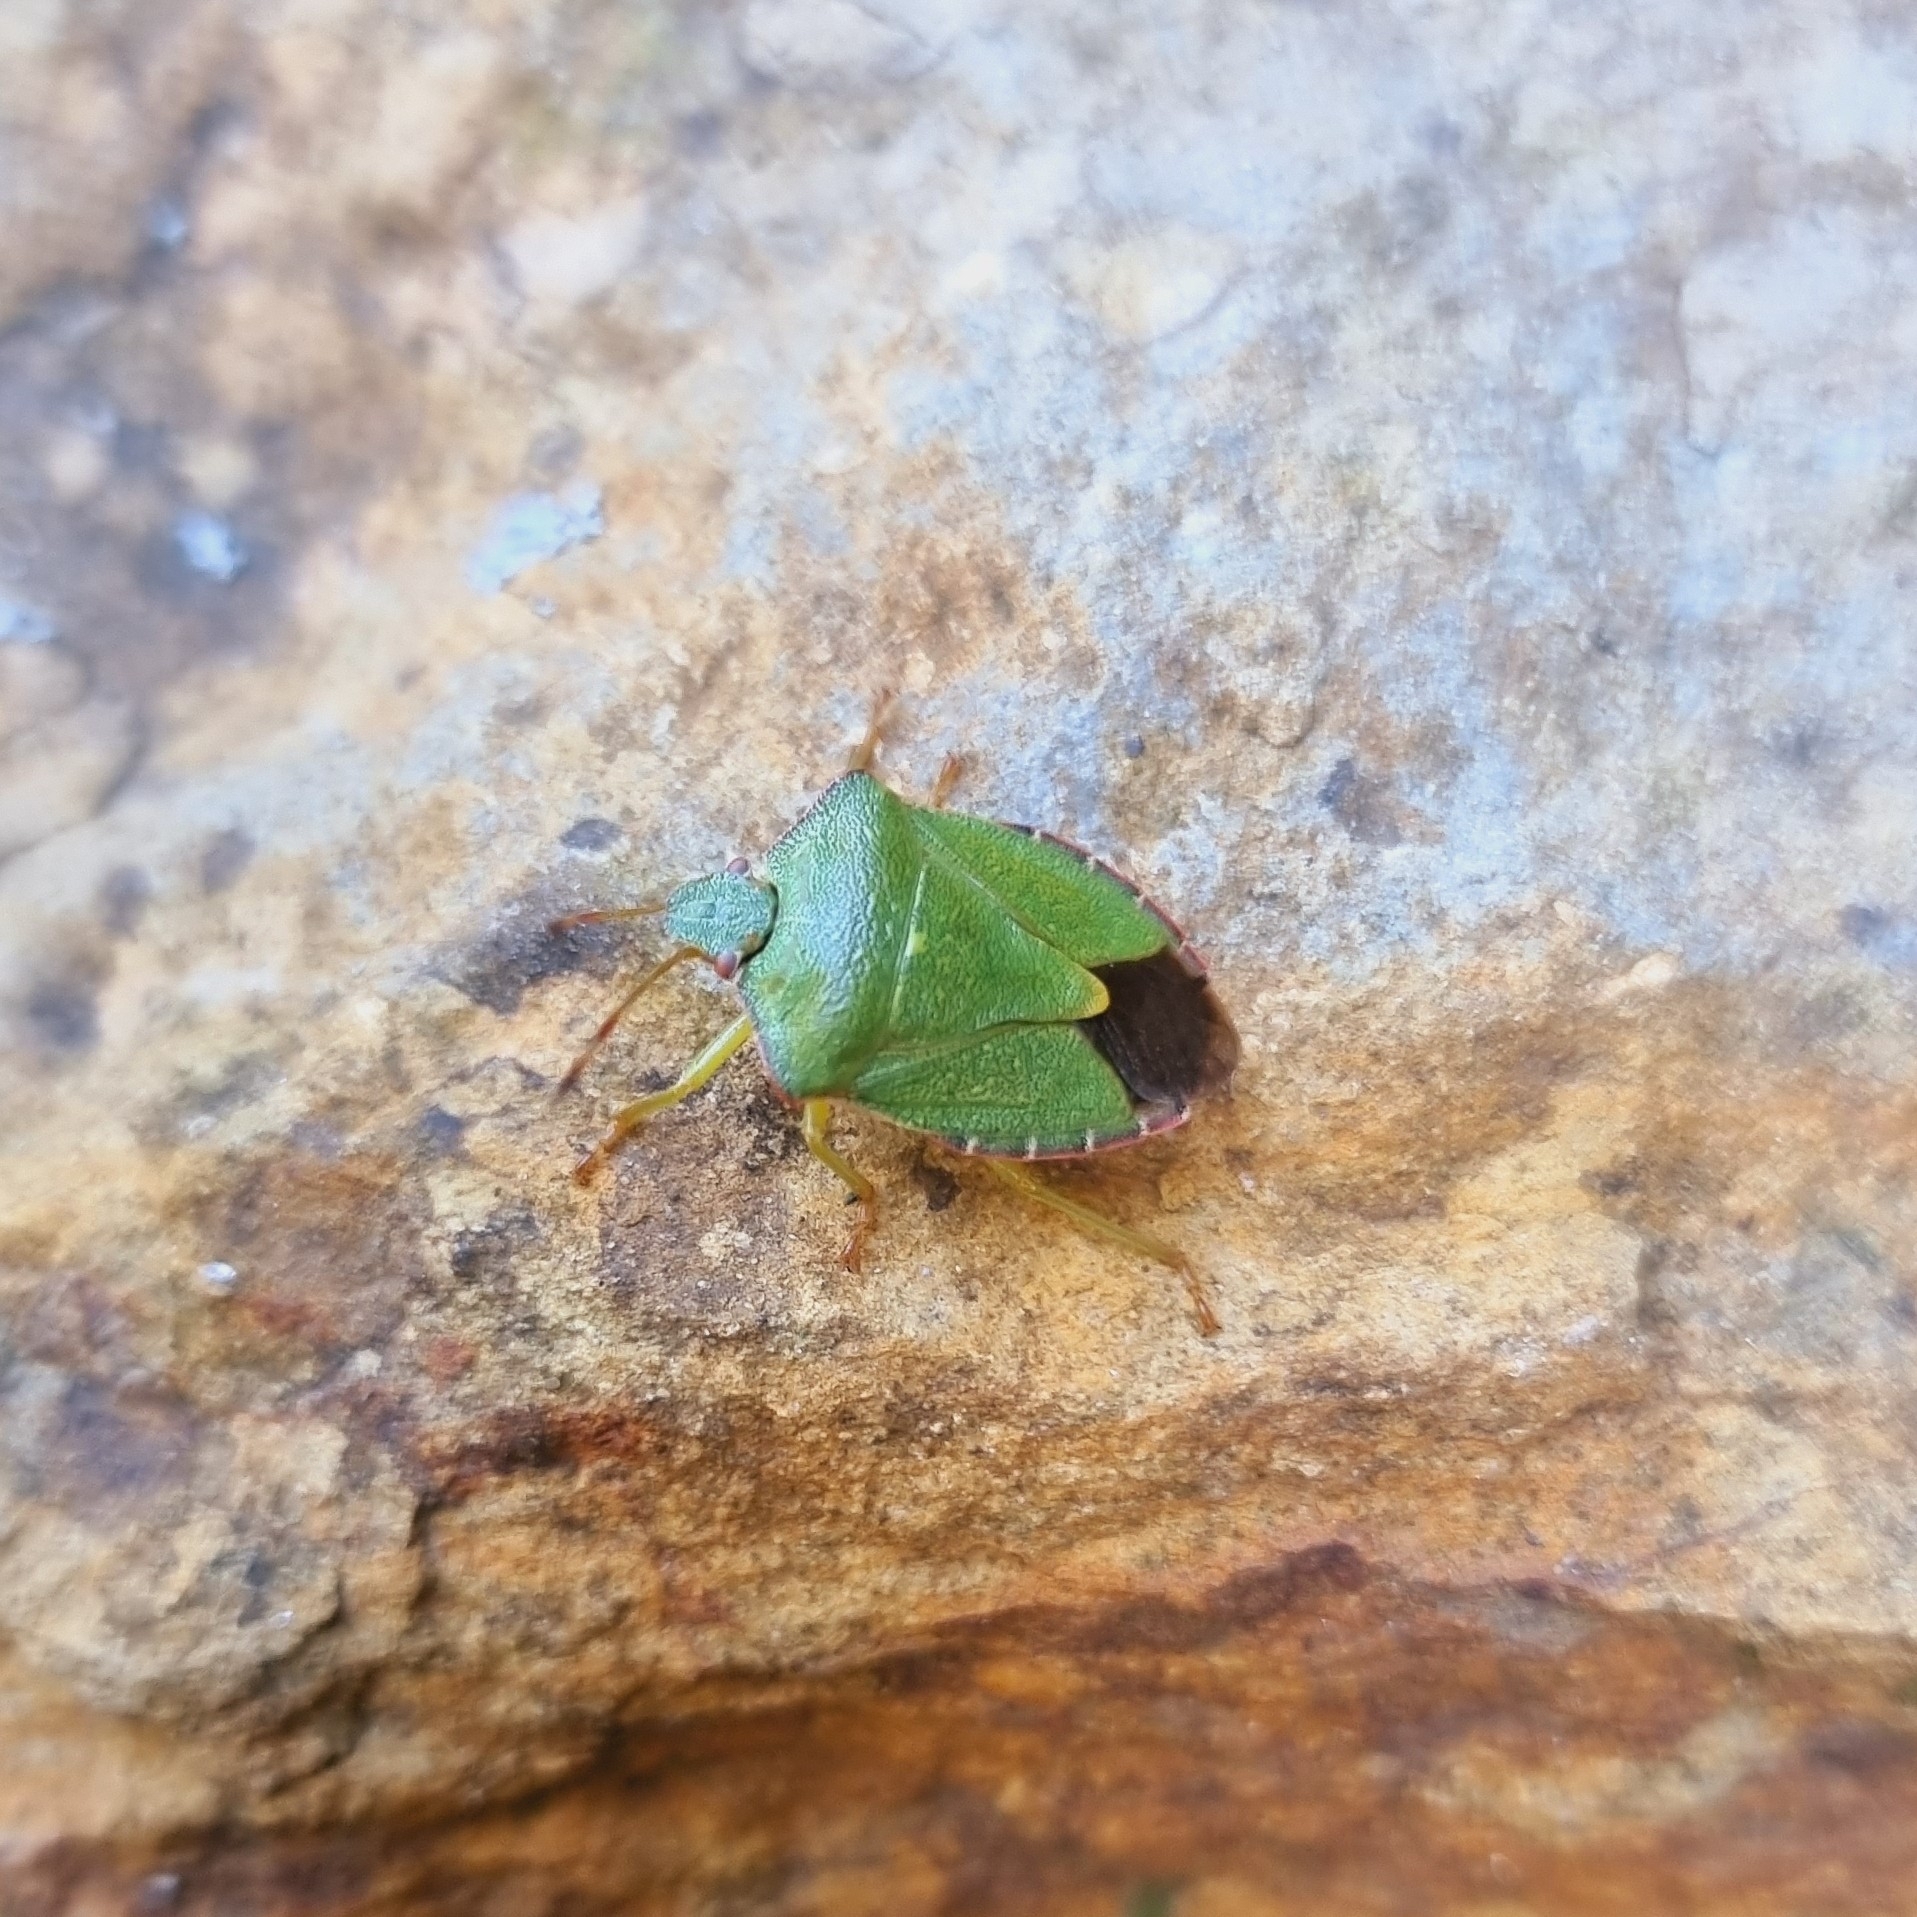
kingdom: Animalia
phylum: Arthropoda
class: Insecta
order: Hemiptera
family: Pentatomidae
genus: Palomena
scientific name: Palomena prasina
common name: Green shieldbug
